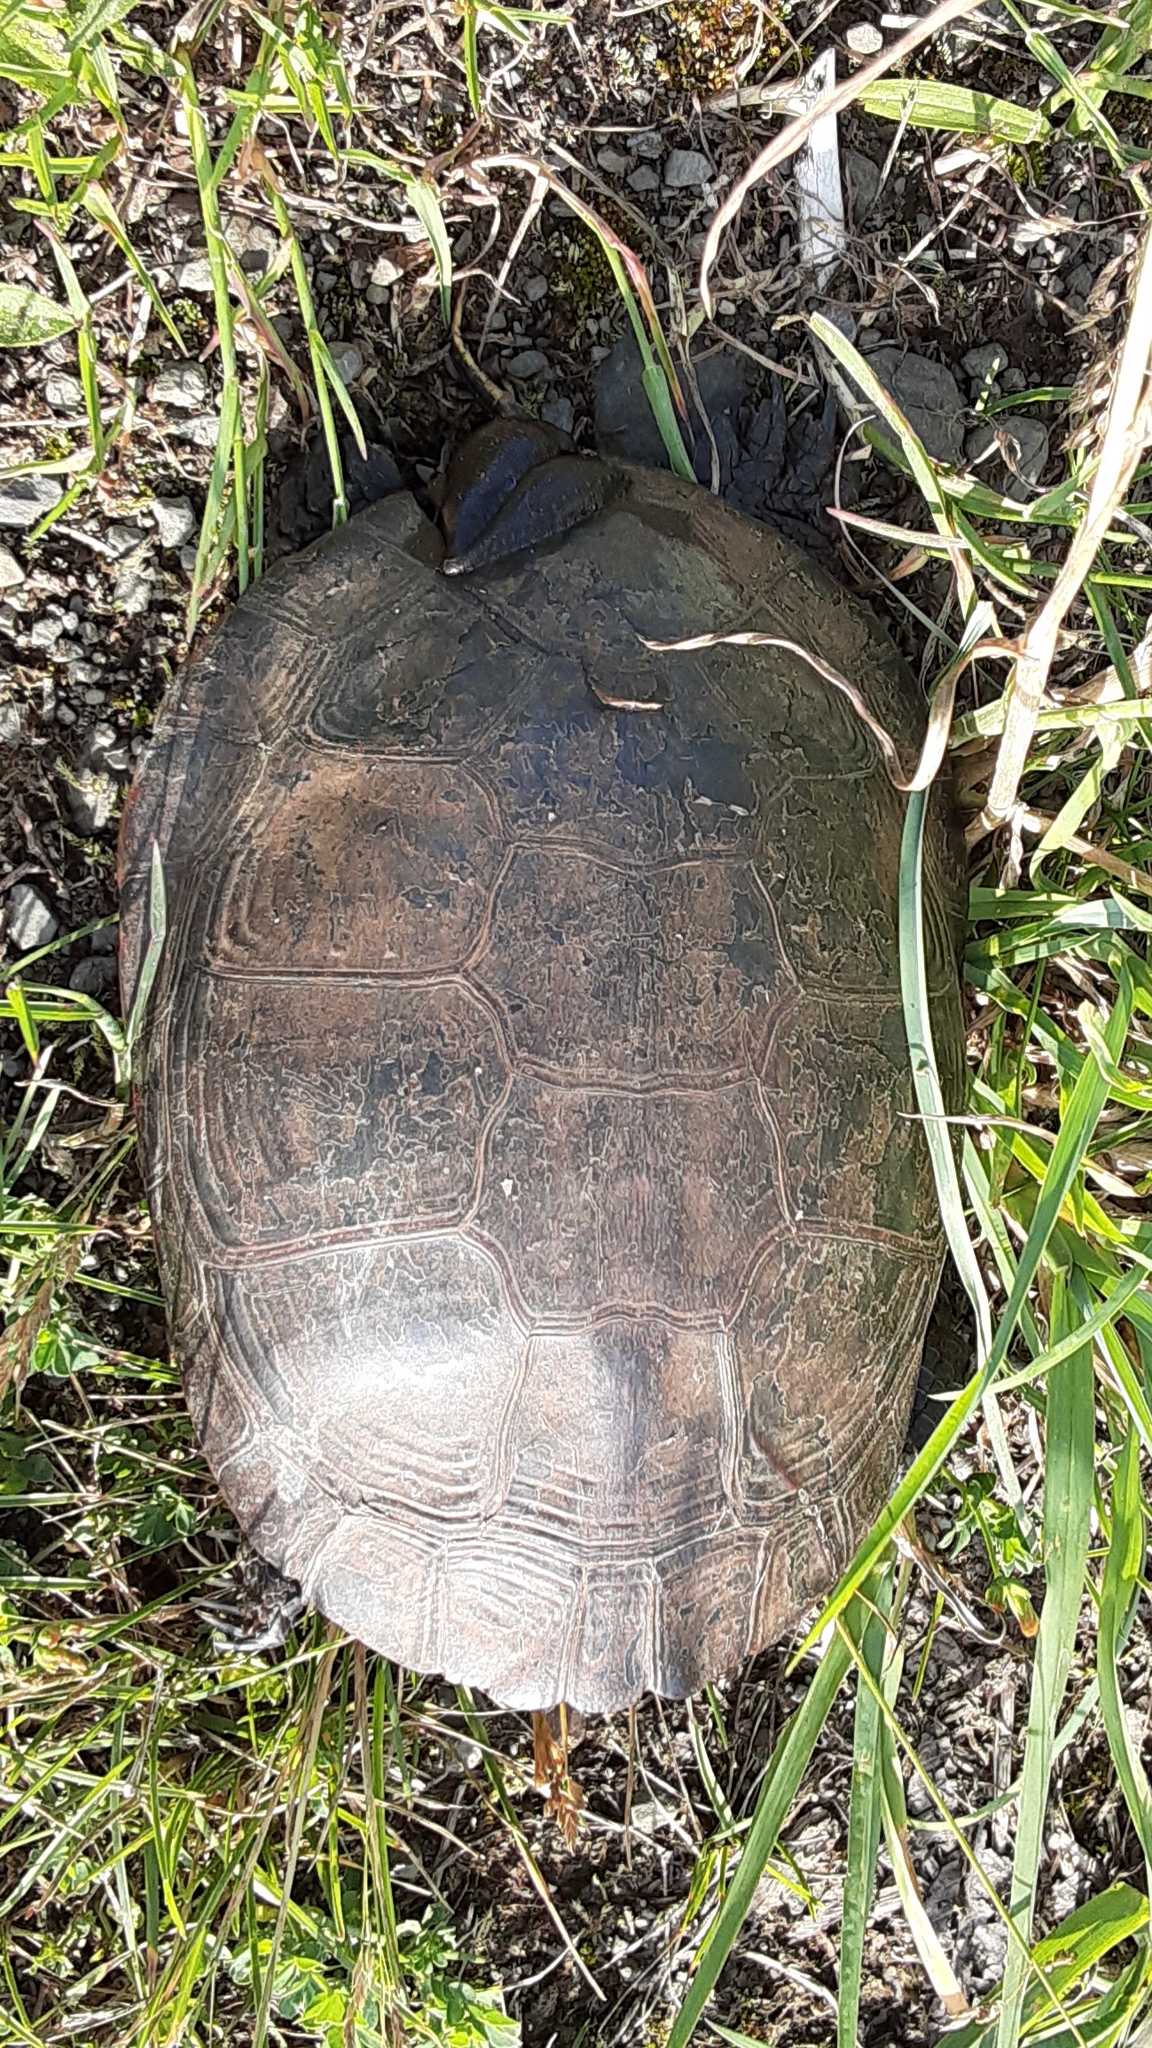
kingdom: Animalia
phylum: Chordata
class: Testudines
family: Emydidae
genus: Chrysemys
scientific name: Chrysemys picta
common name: Painted turtle
